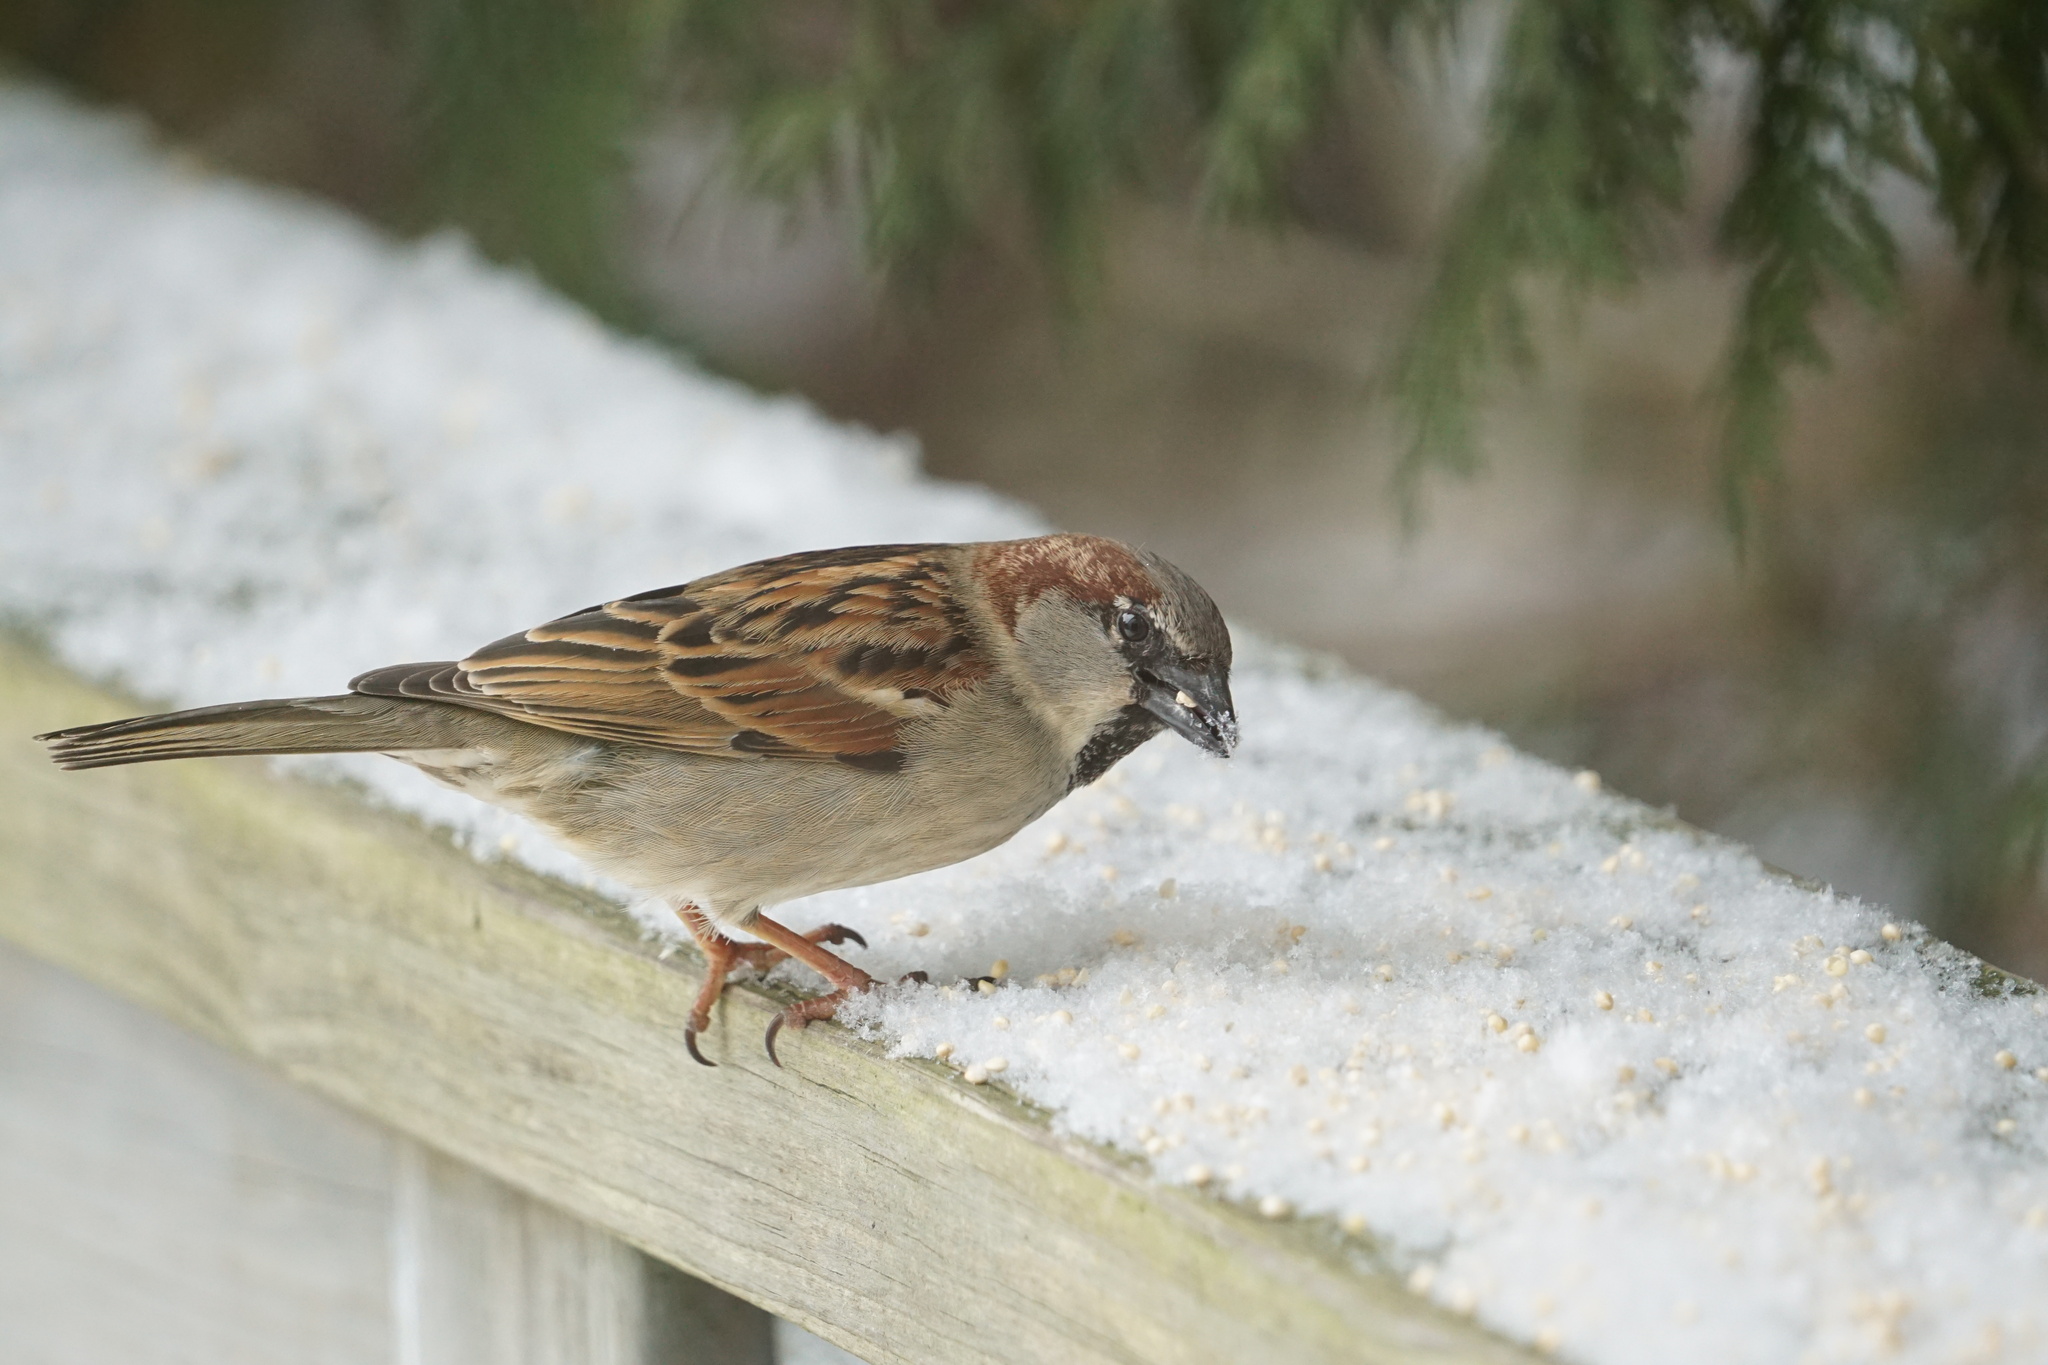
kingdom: Animalia
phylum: Chordata
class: Aves
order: Passeriformes
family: Passeridae
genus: Passer
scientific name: Passer domesticus
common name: House sparrow
